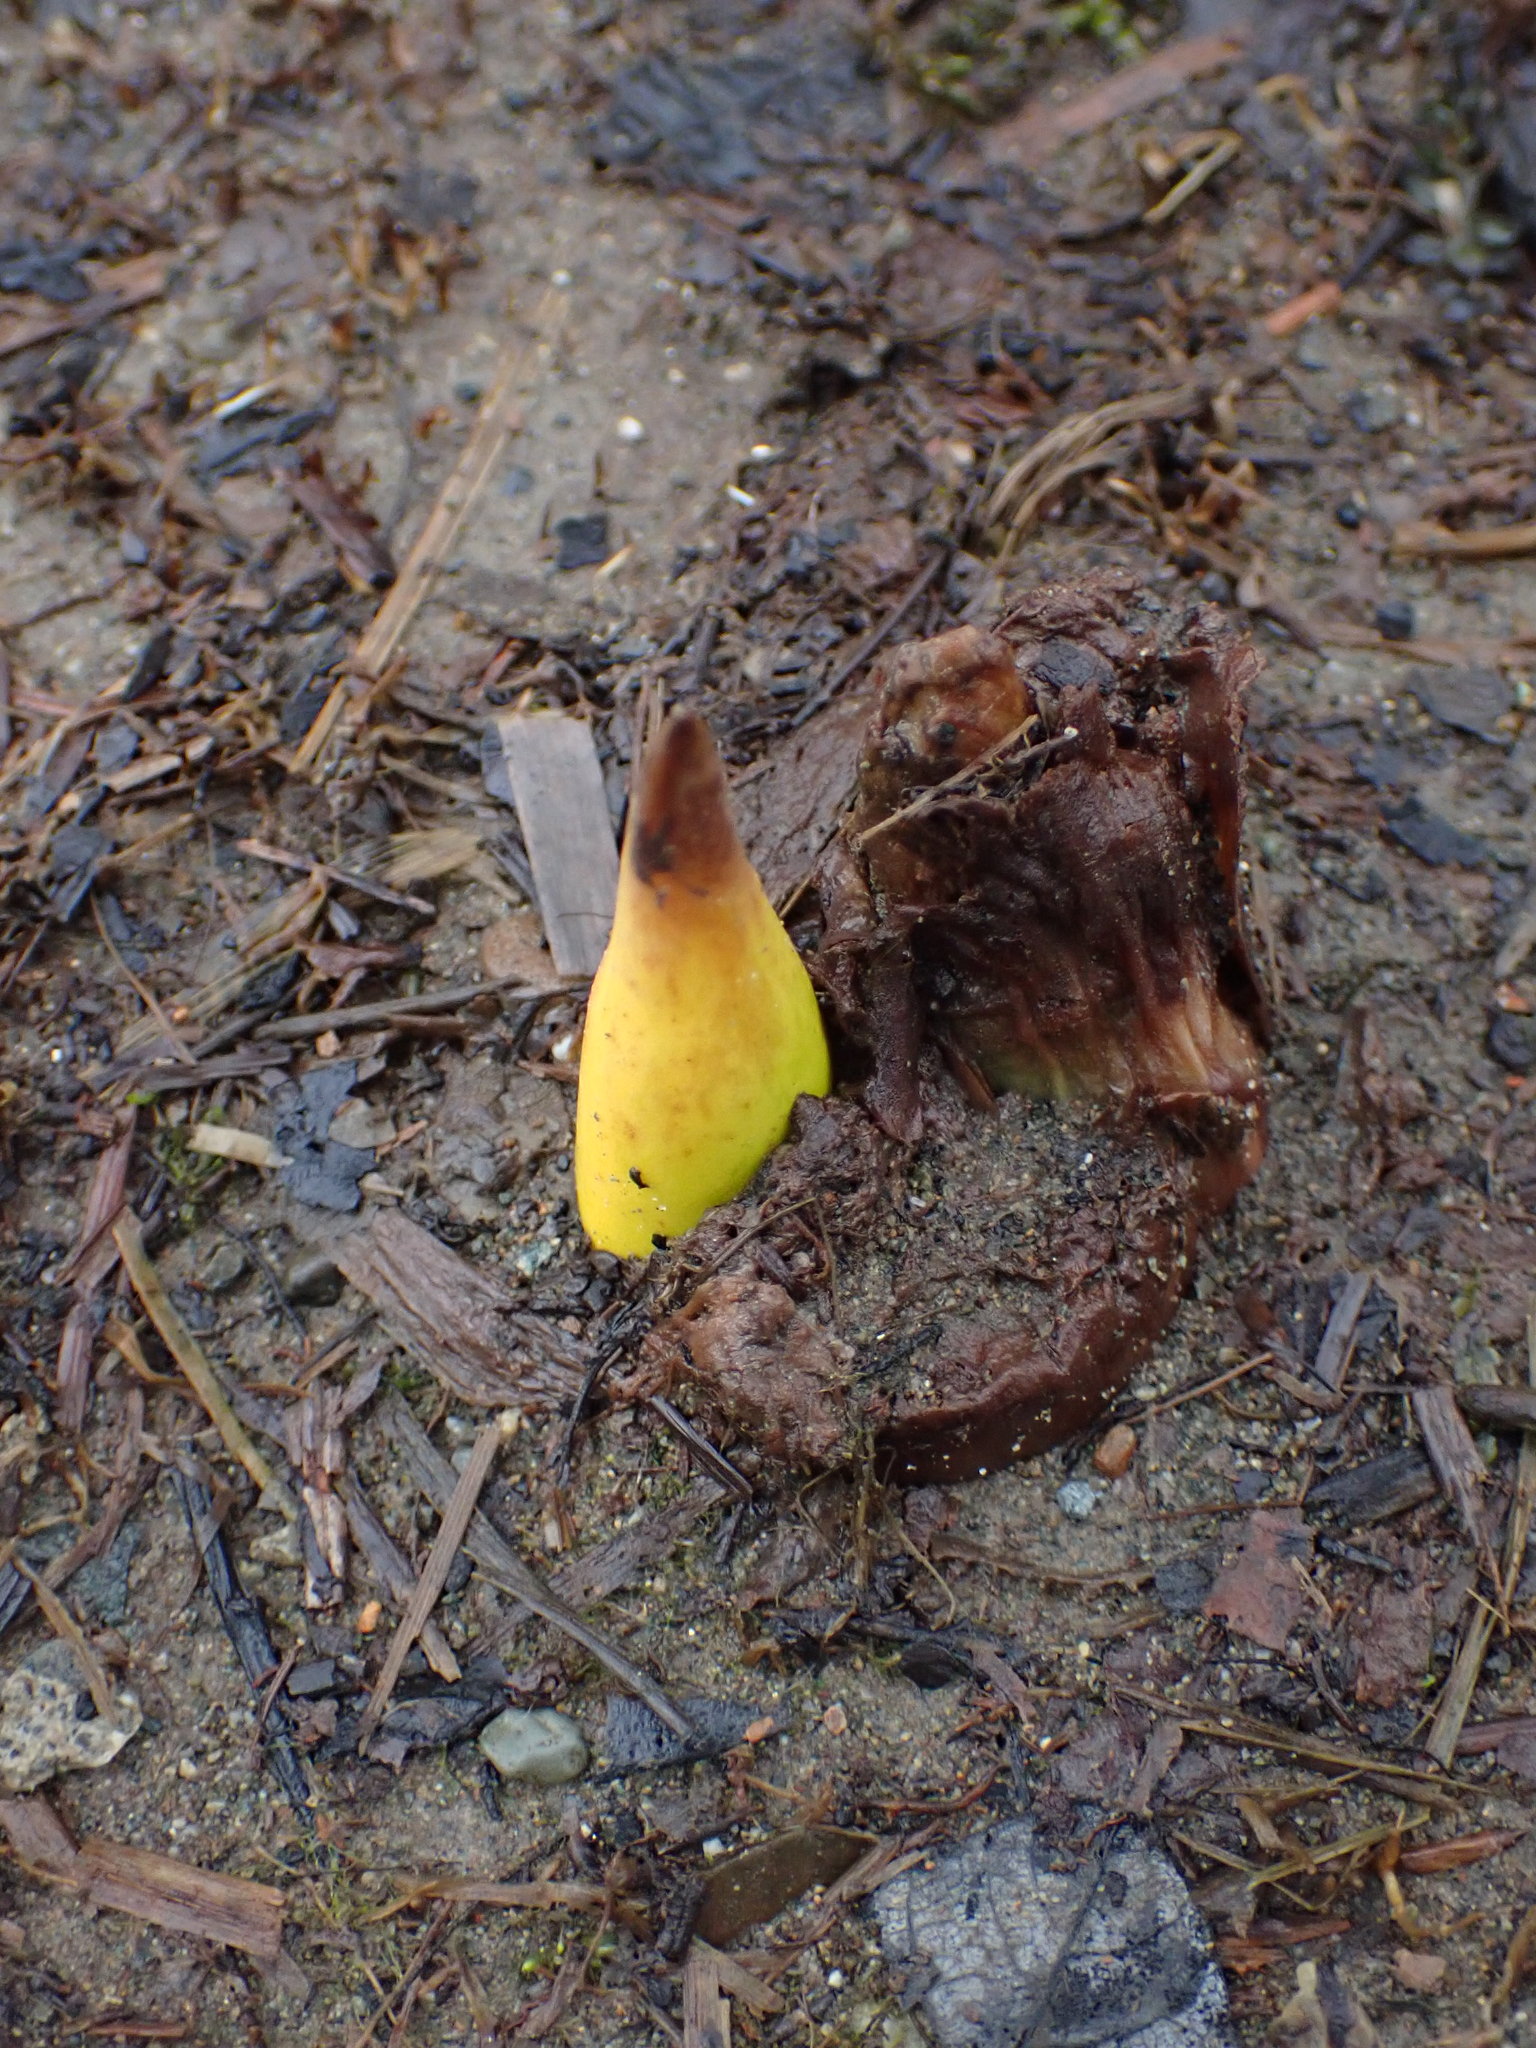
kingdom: Plantae
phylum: Tracheophyta
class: Liliopsida
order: Alismatales
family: Araceae
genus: Lysichiton
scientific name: Lysichiton americanus
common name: American skunk cabbage
